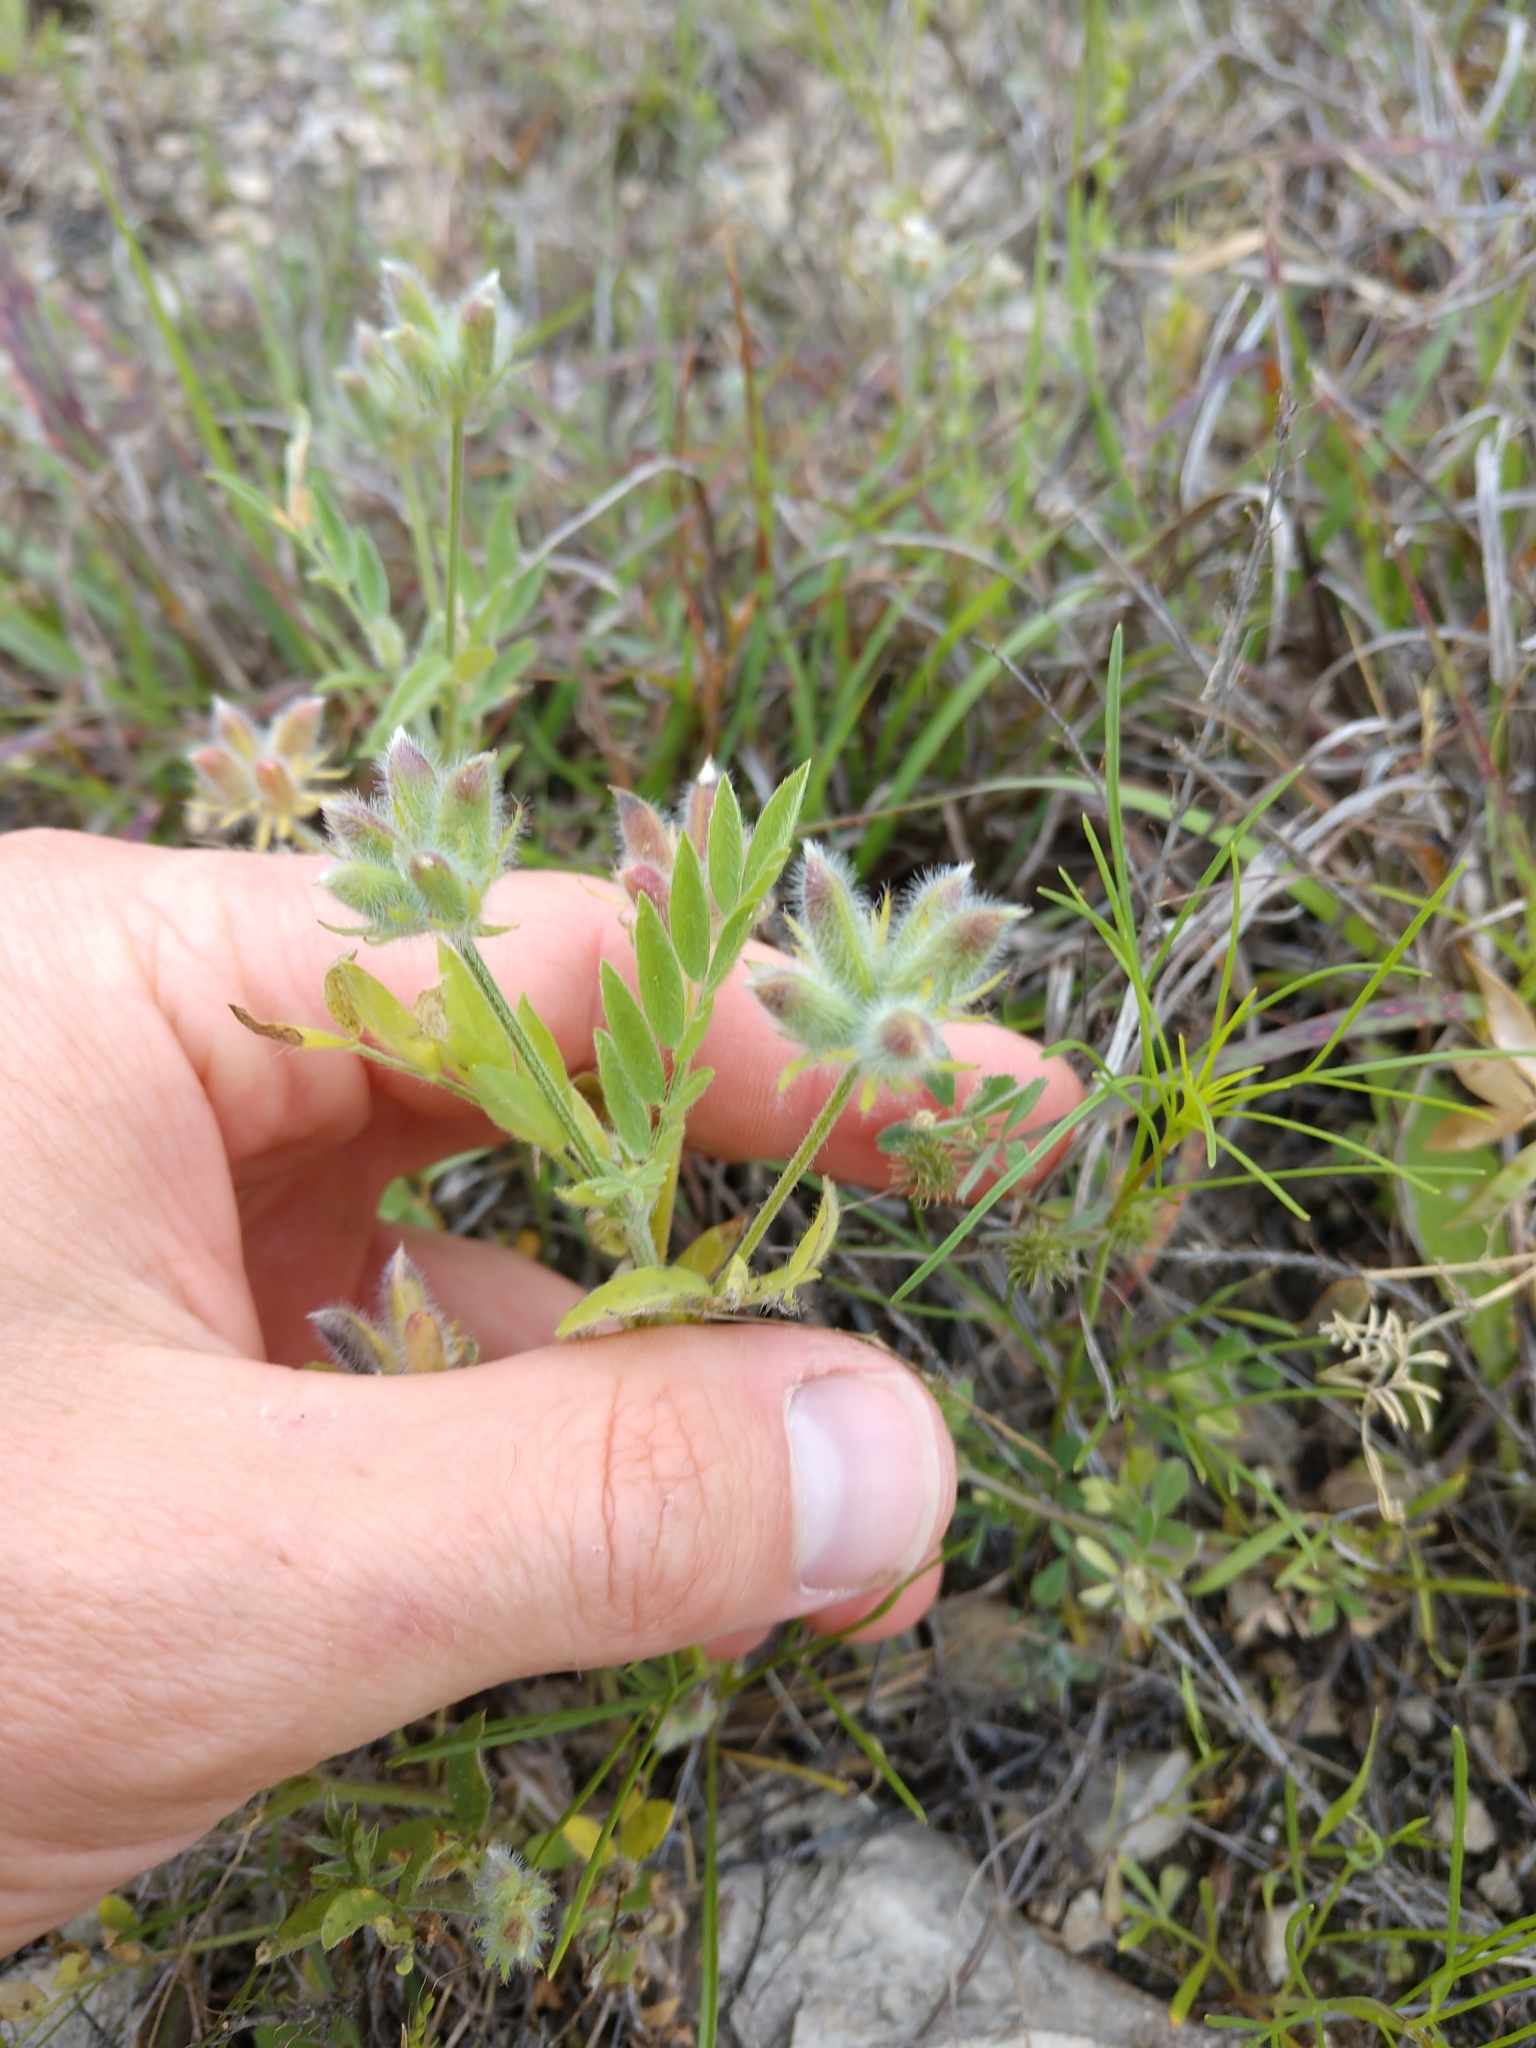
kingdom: Plantae
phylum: Tracheophyta
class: Magnoliopsida
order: Fabales
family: Fabaceae
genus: Astragalus
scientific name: Astragalus wrightii
